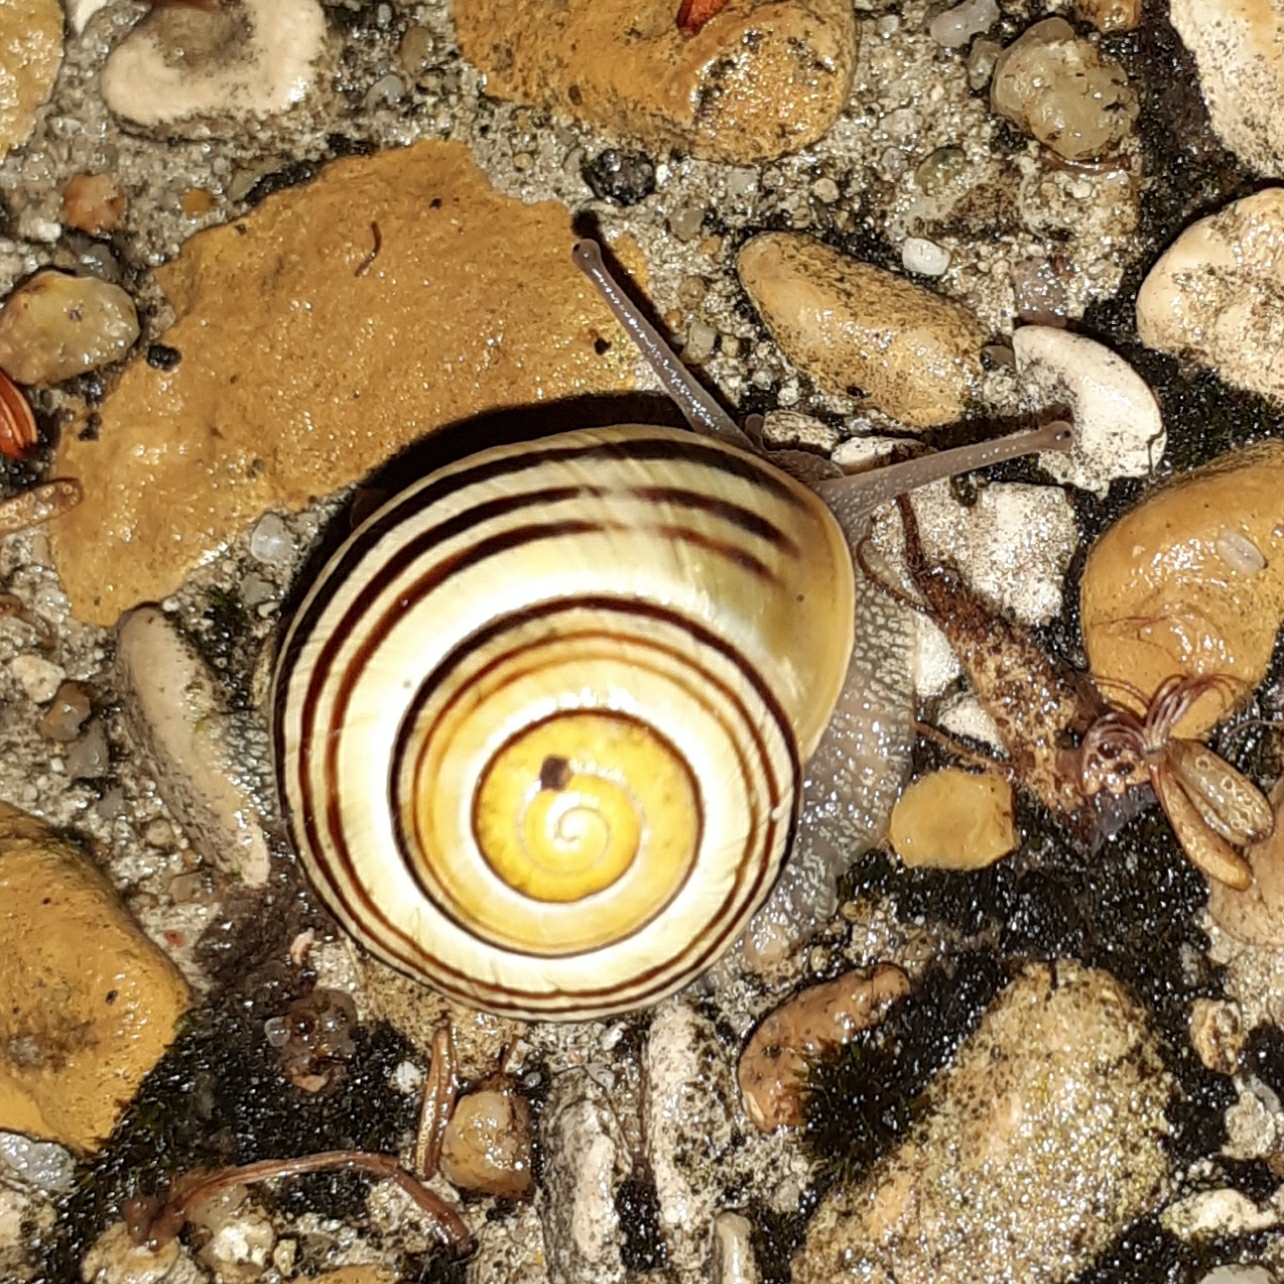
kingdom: Animalia
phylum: Mollusca
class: Gastropoda
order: Stylommatophora
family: Helicidae
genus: Cepaea
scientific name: Cepaea
